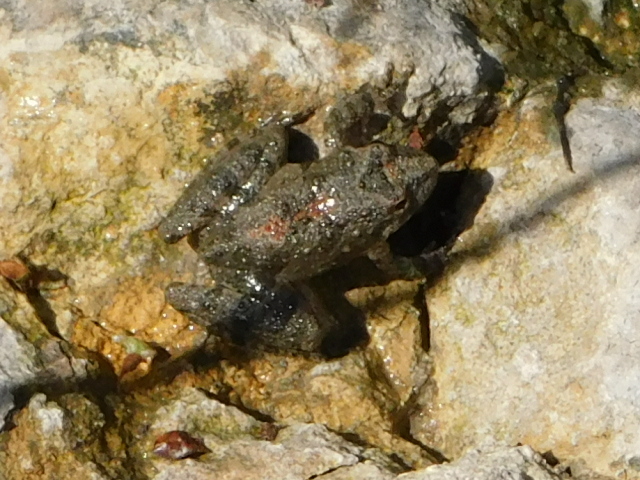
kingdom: Animalia
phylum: Chordata
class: Amphibia
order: Anura
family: Hylidae
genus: Acris
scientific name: Acris blanchardi
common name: Blanchard's cricket frog
